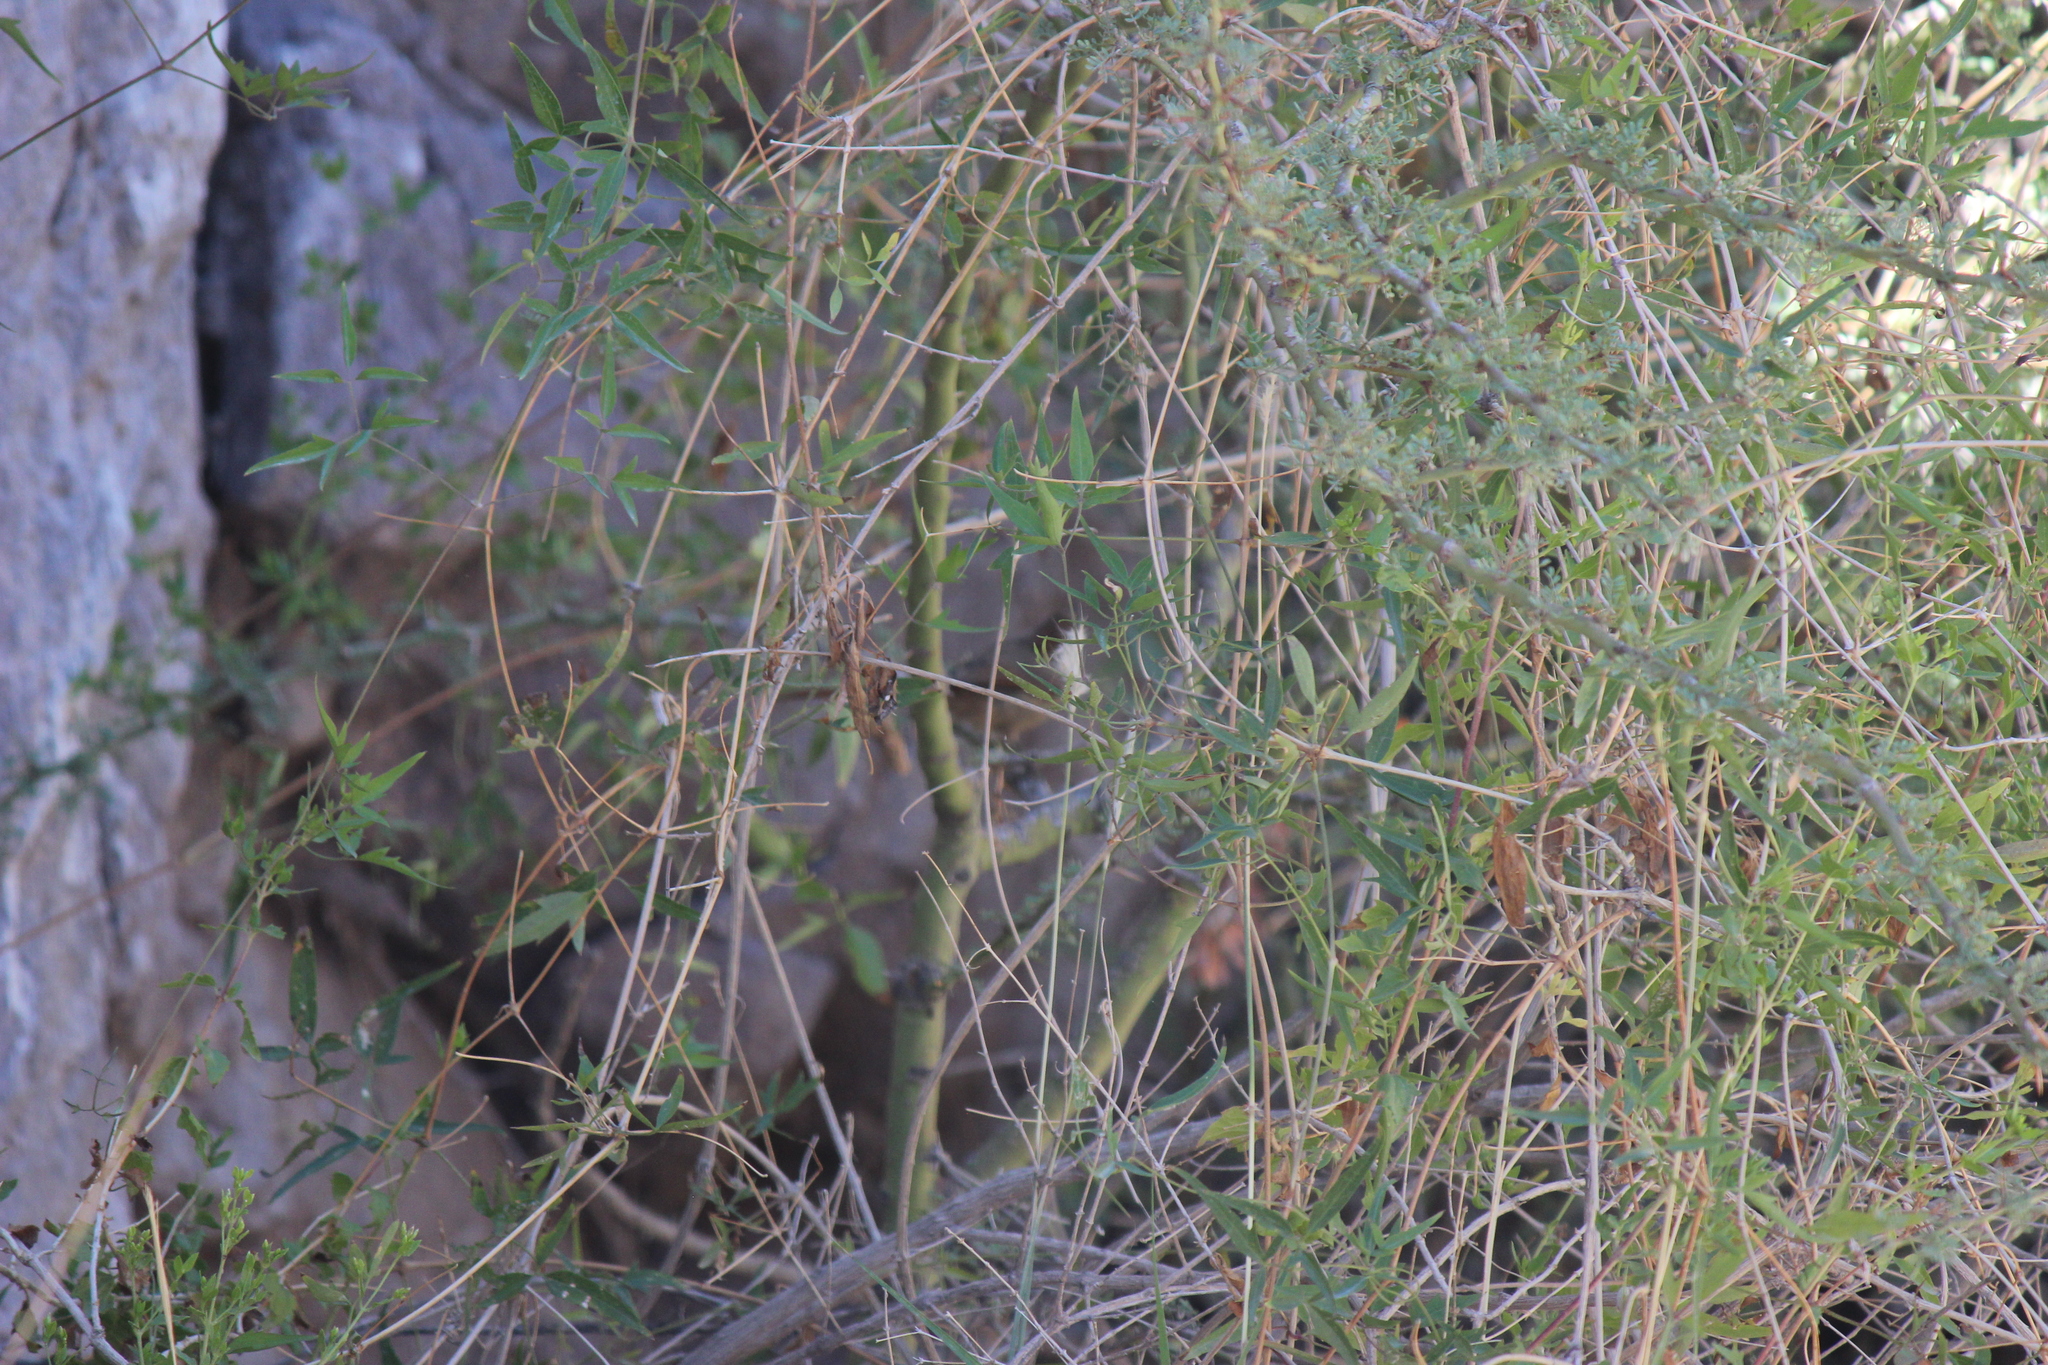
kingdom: Plantae
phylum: Tracheophyta
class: Magnoliopsida
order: Ranunculales
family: Ranunculaceae
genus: Clematis
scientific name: Clematis montevidensis
